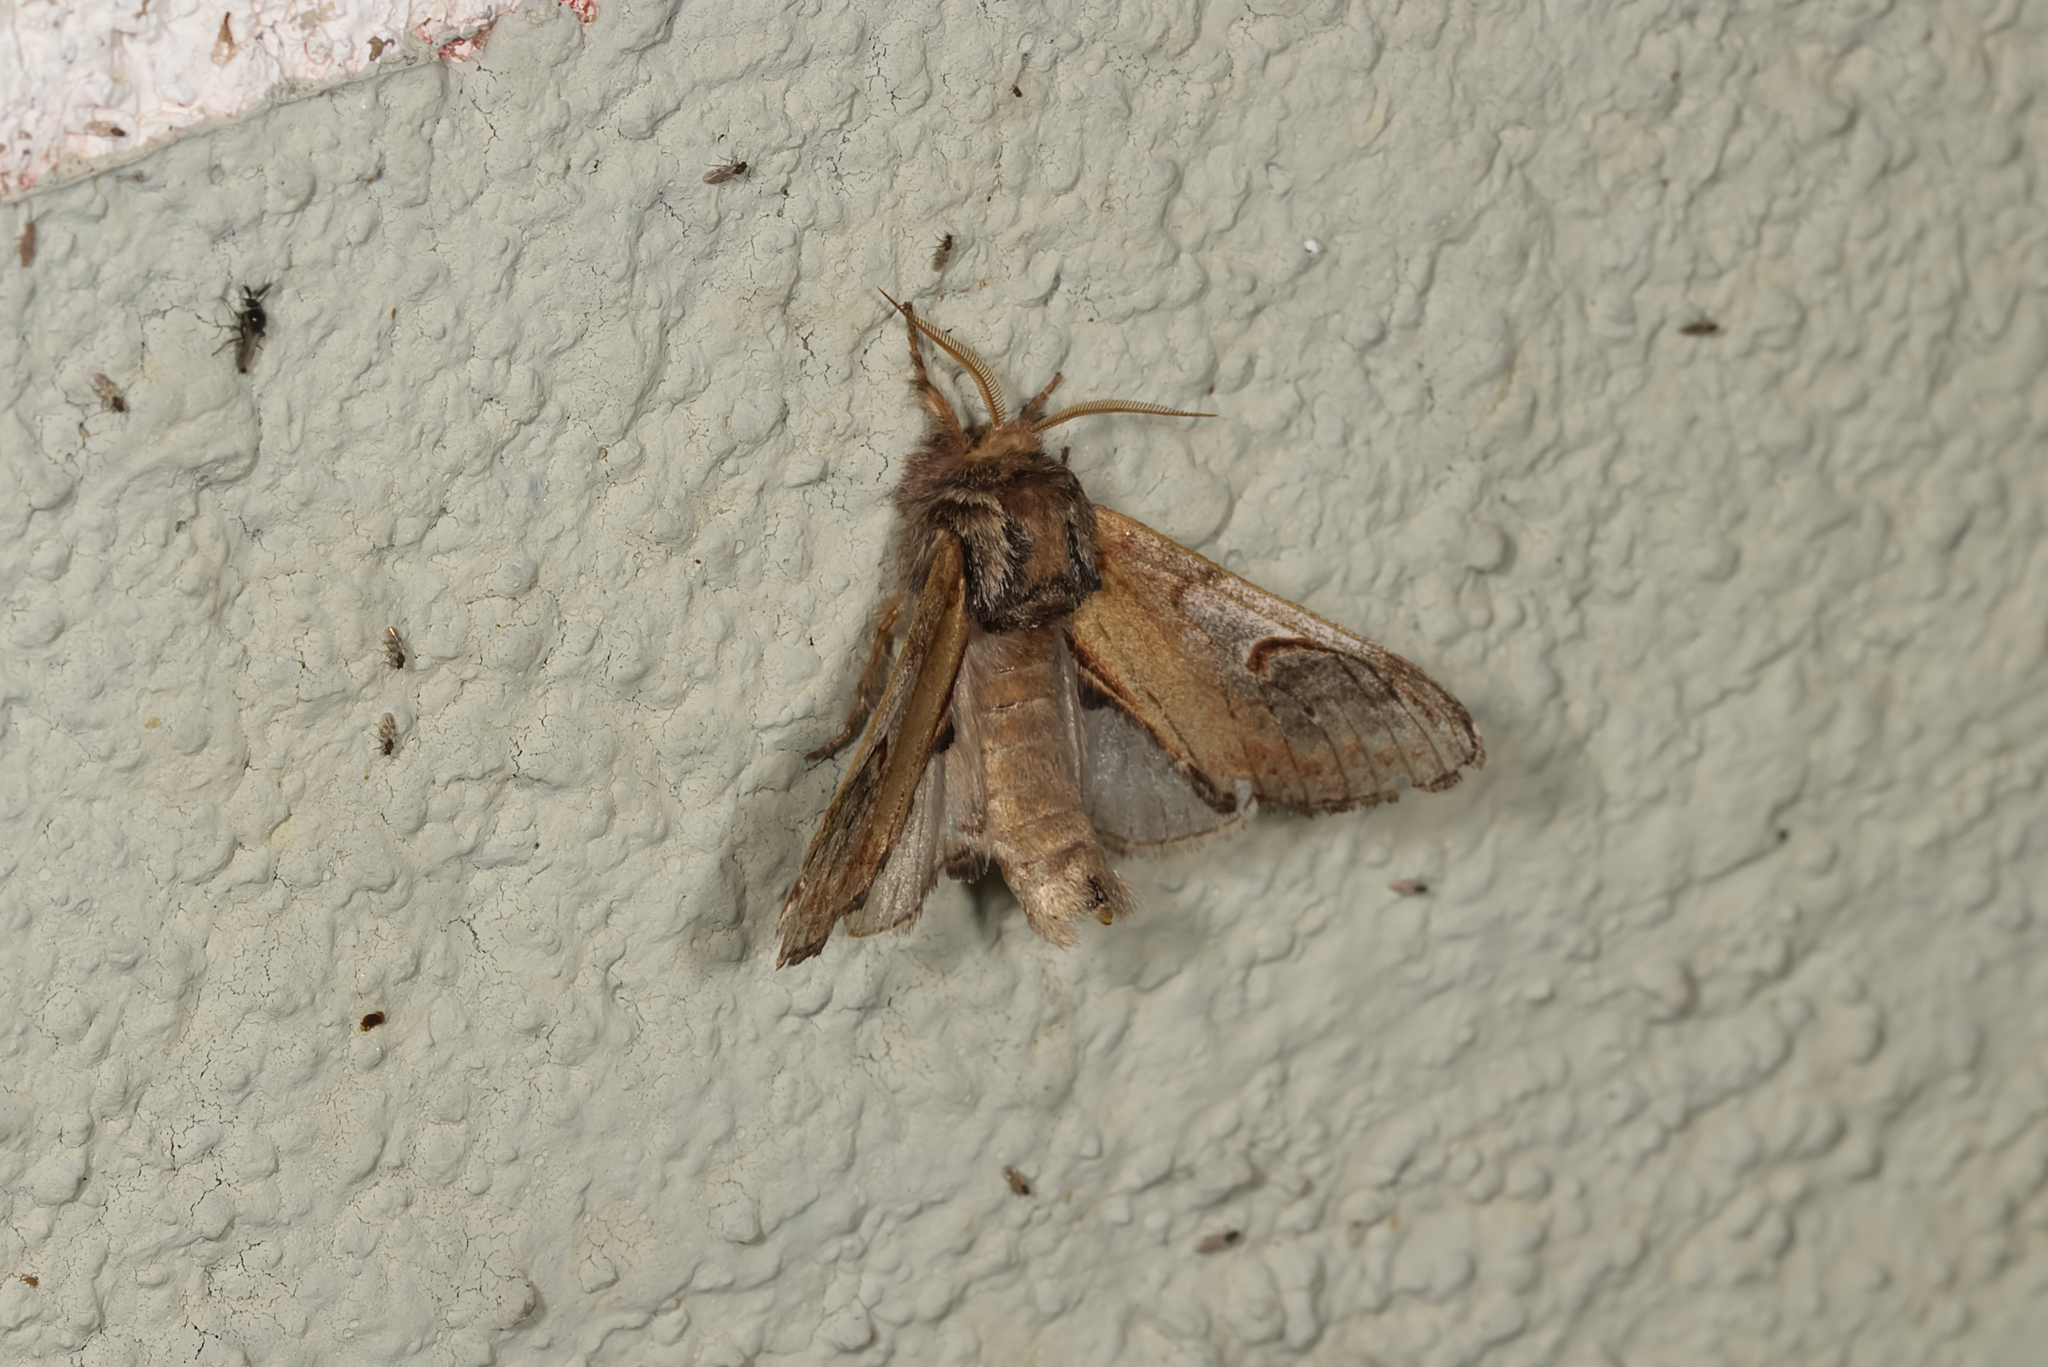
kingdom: Animalia
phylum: Arthropoda
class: Insecta
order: Lepidoptera
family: Notodontidae
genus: Notodonta
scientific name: Notodonta ziczac
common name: Pebble prominent
